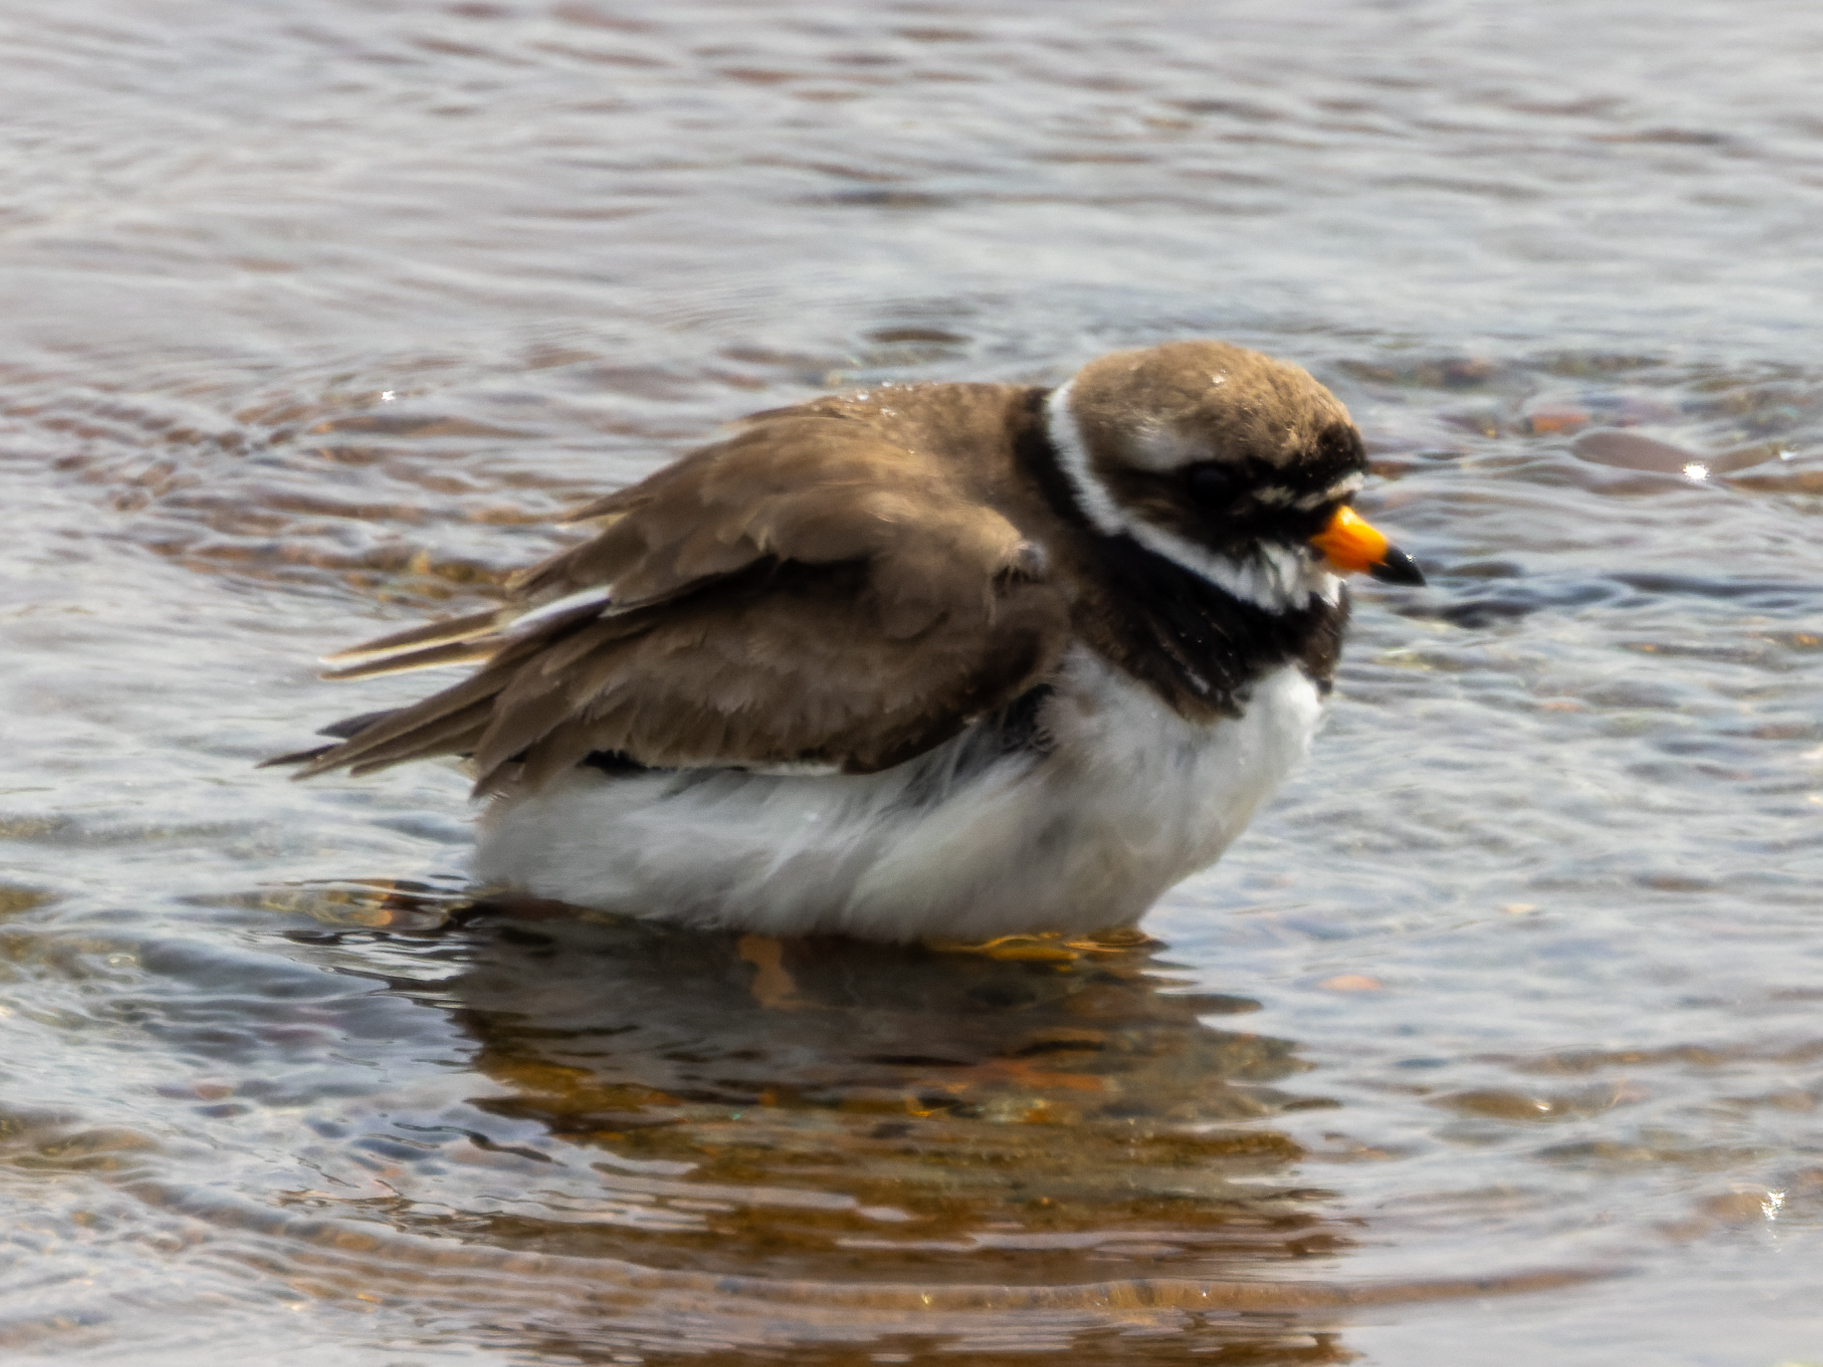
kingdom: Animalia
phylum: Chordata
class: Aves
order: Charadriiformes
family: Charadriidae
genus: Charadrius
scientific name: Charadrius hiaticula
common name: Common ringed plover
